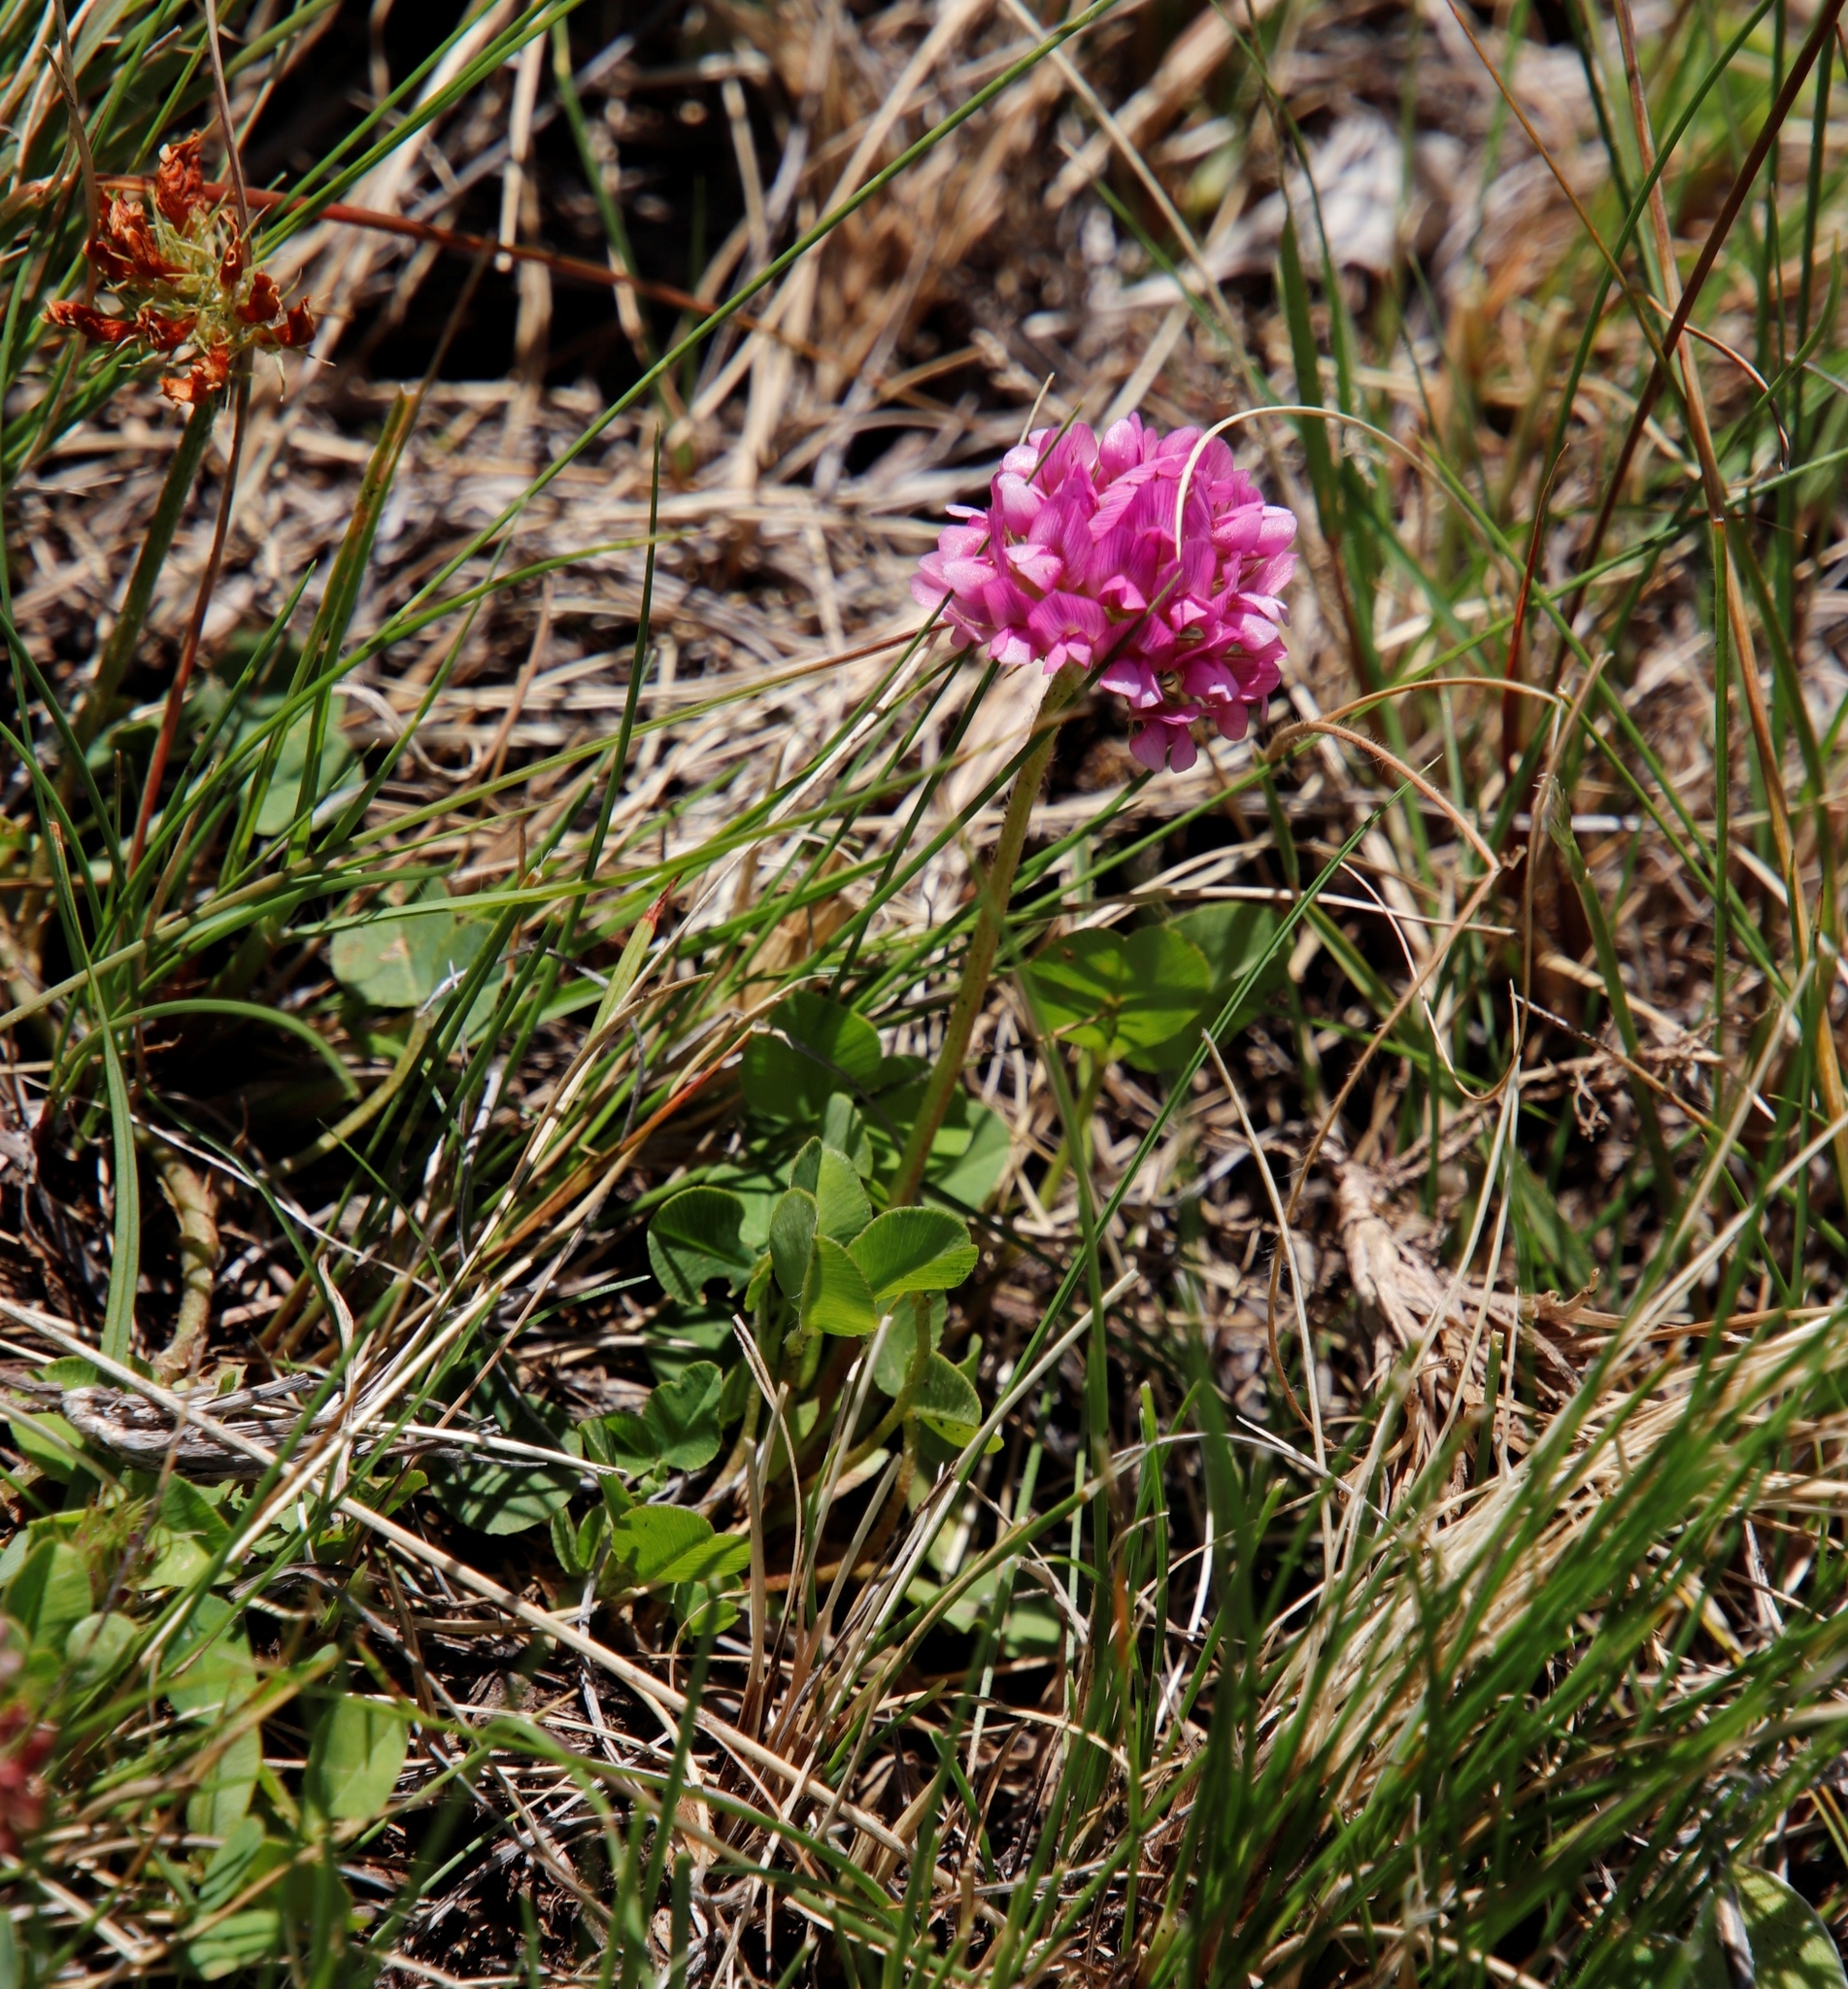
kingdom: Plantae
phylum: Tracheophyta
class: Magnoliopsida
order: Fabales
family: Fabaceae
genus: Trifolium
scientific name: Trifolium burchellianum
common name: Burchell's clover
